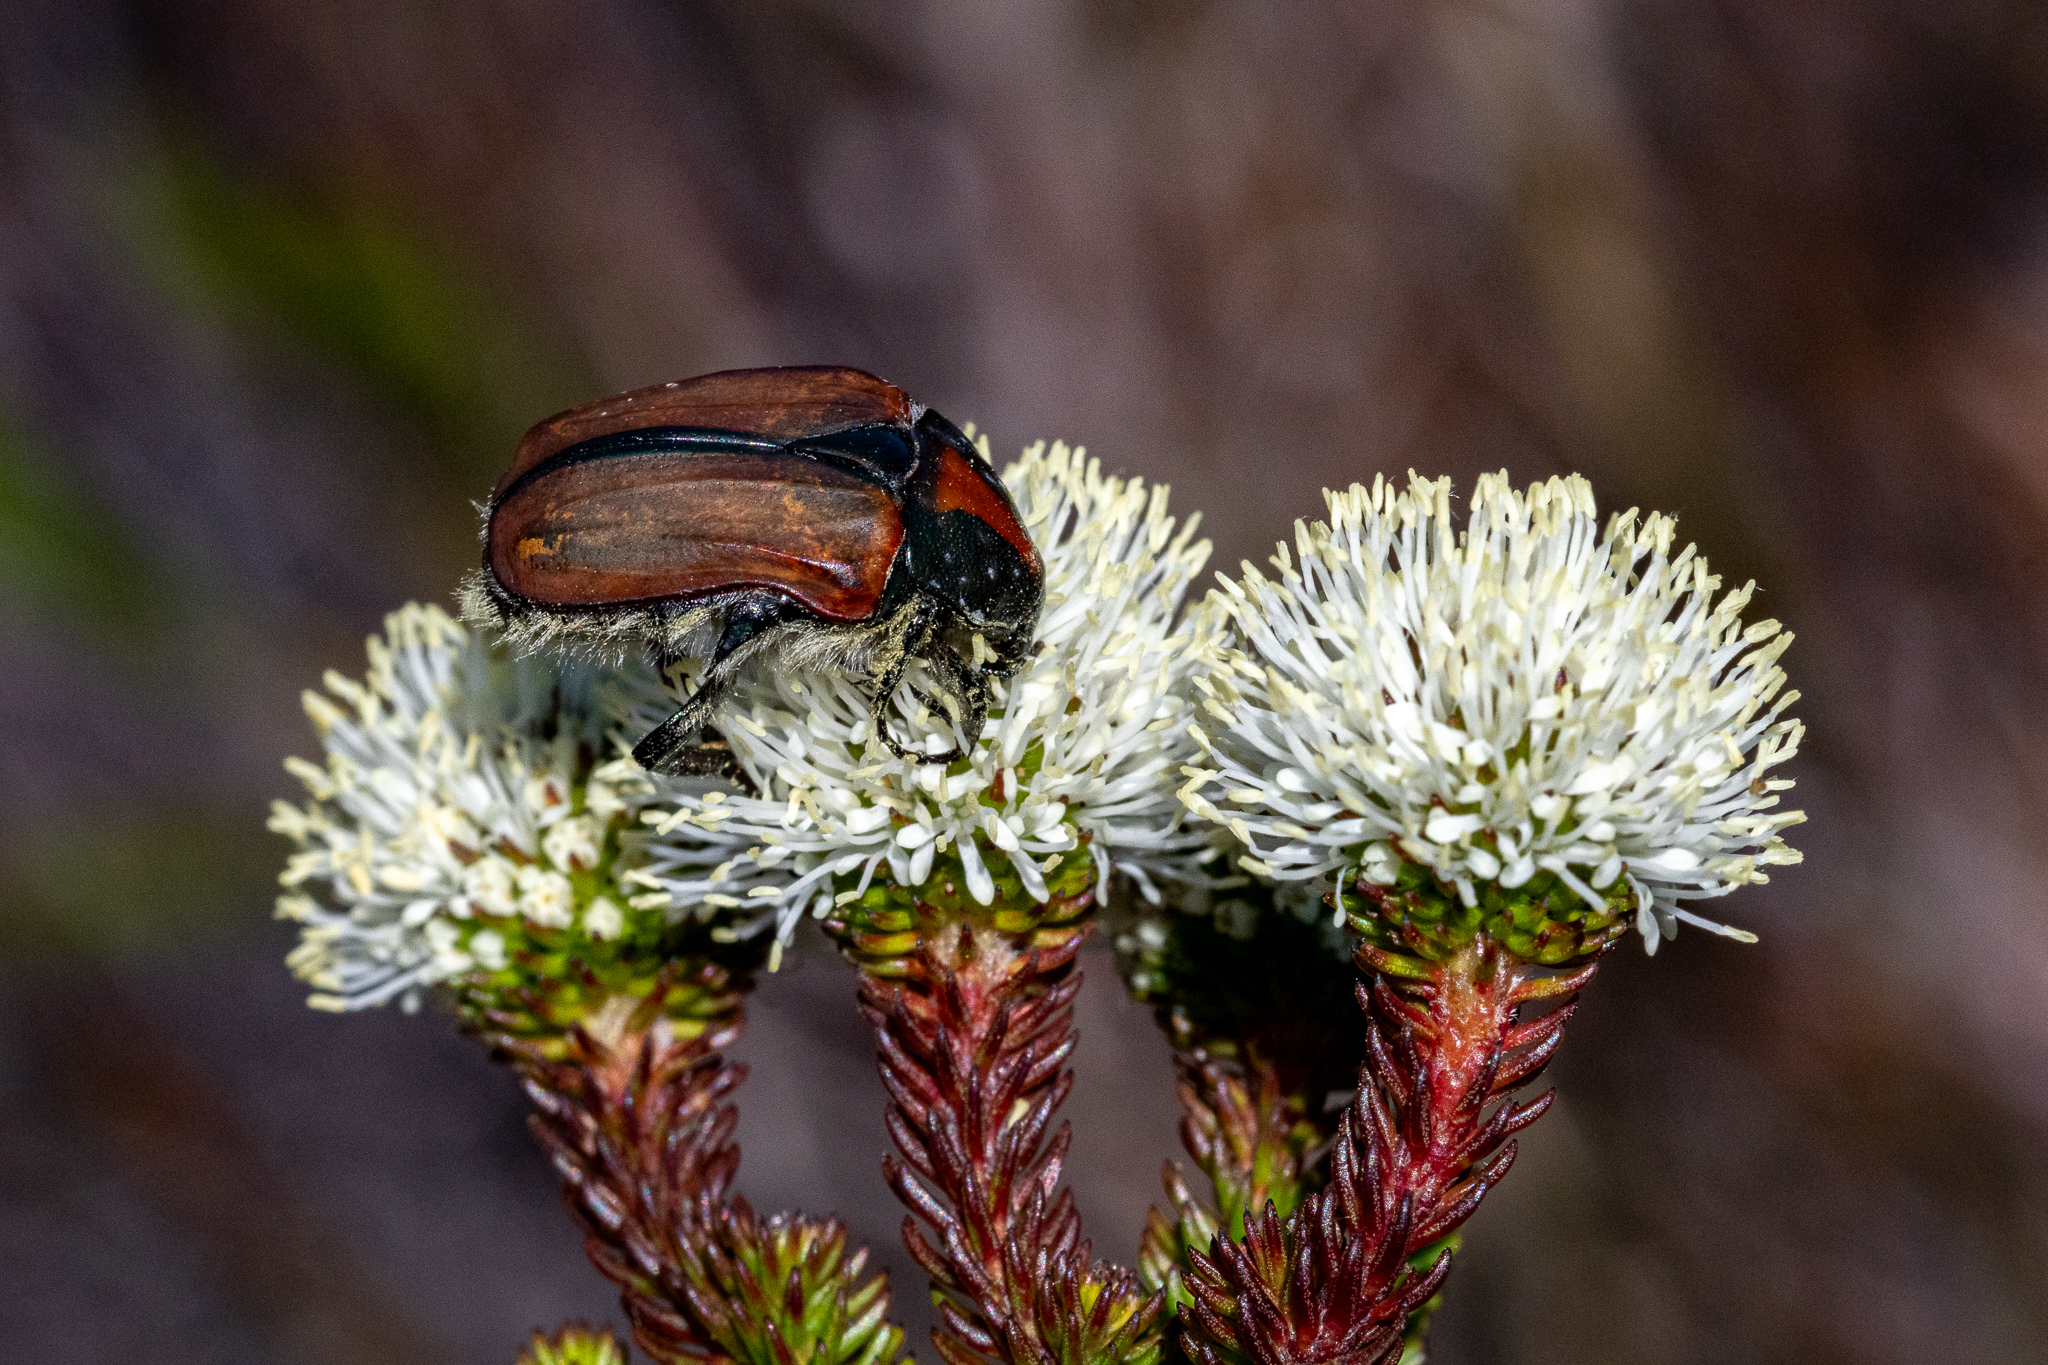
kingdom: Plantae
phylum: Tracheophyta
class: Magnoliopsida
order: Bruniales
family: Bruniaceae
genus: Berzelia
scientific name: Berzelia ecklonii
